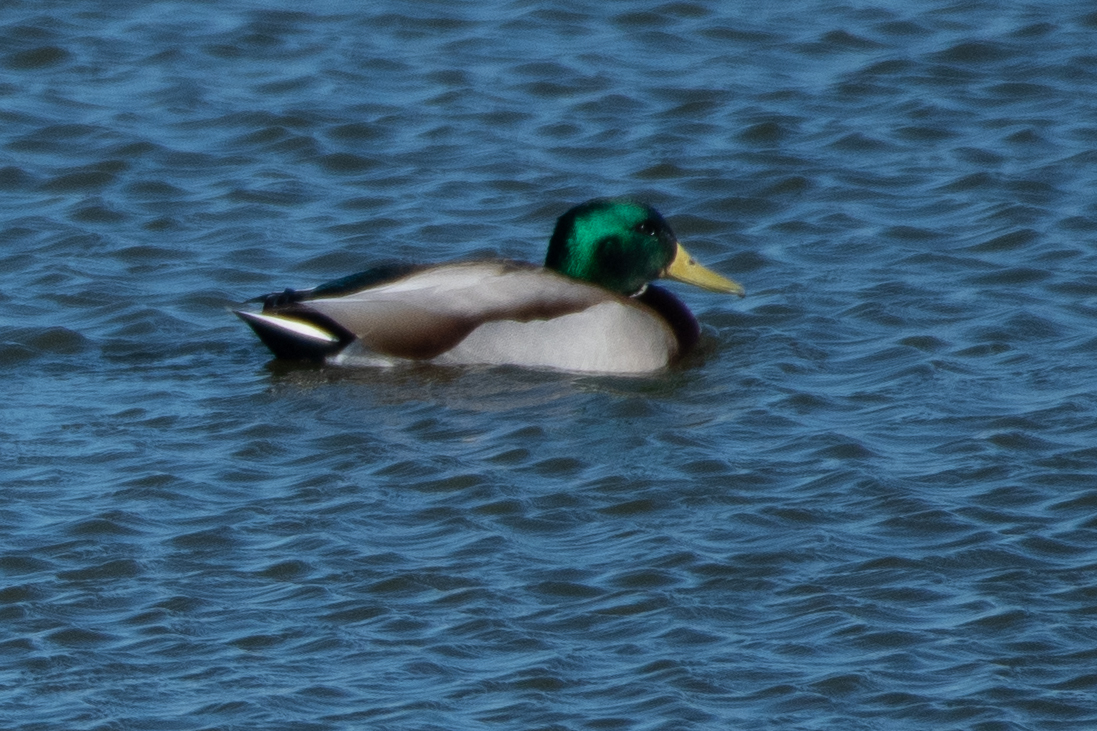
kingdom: Animalia
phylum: Chordata
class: Aves
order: Anseriformes
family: Anatidae
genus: Anas
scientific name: Anas platyrhynchos
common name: Mallard
